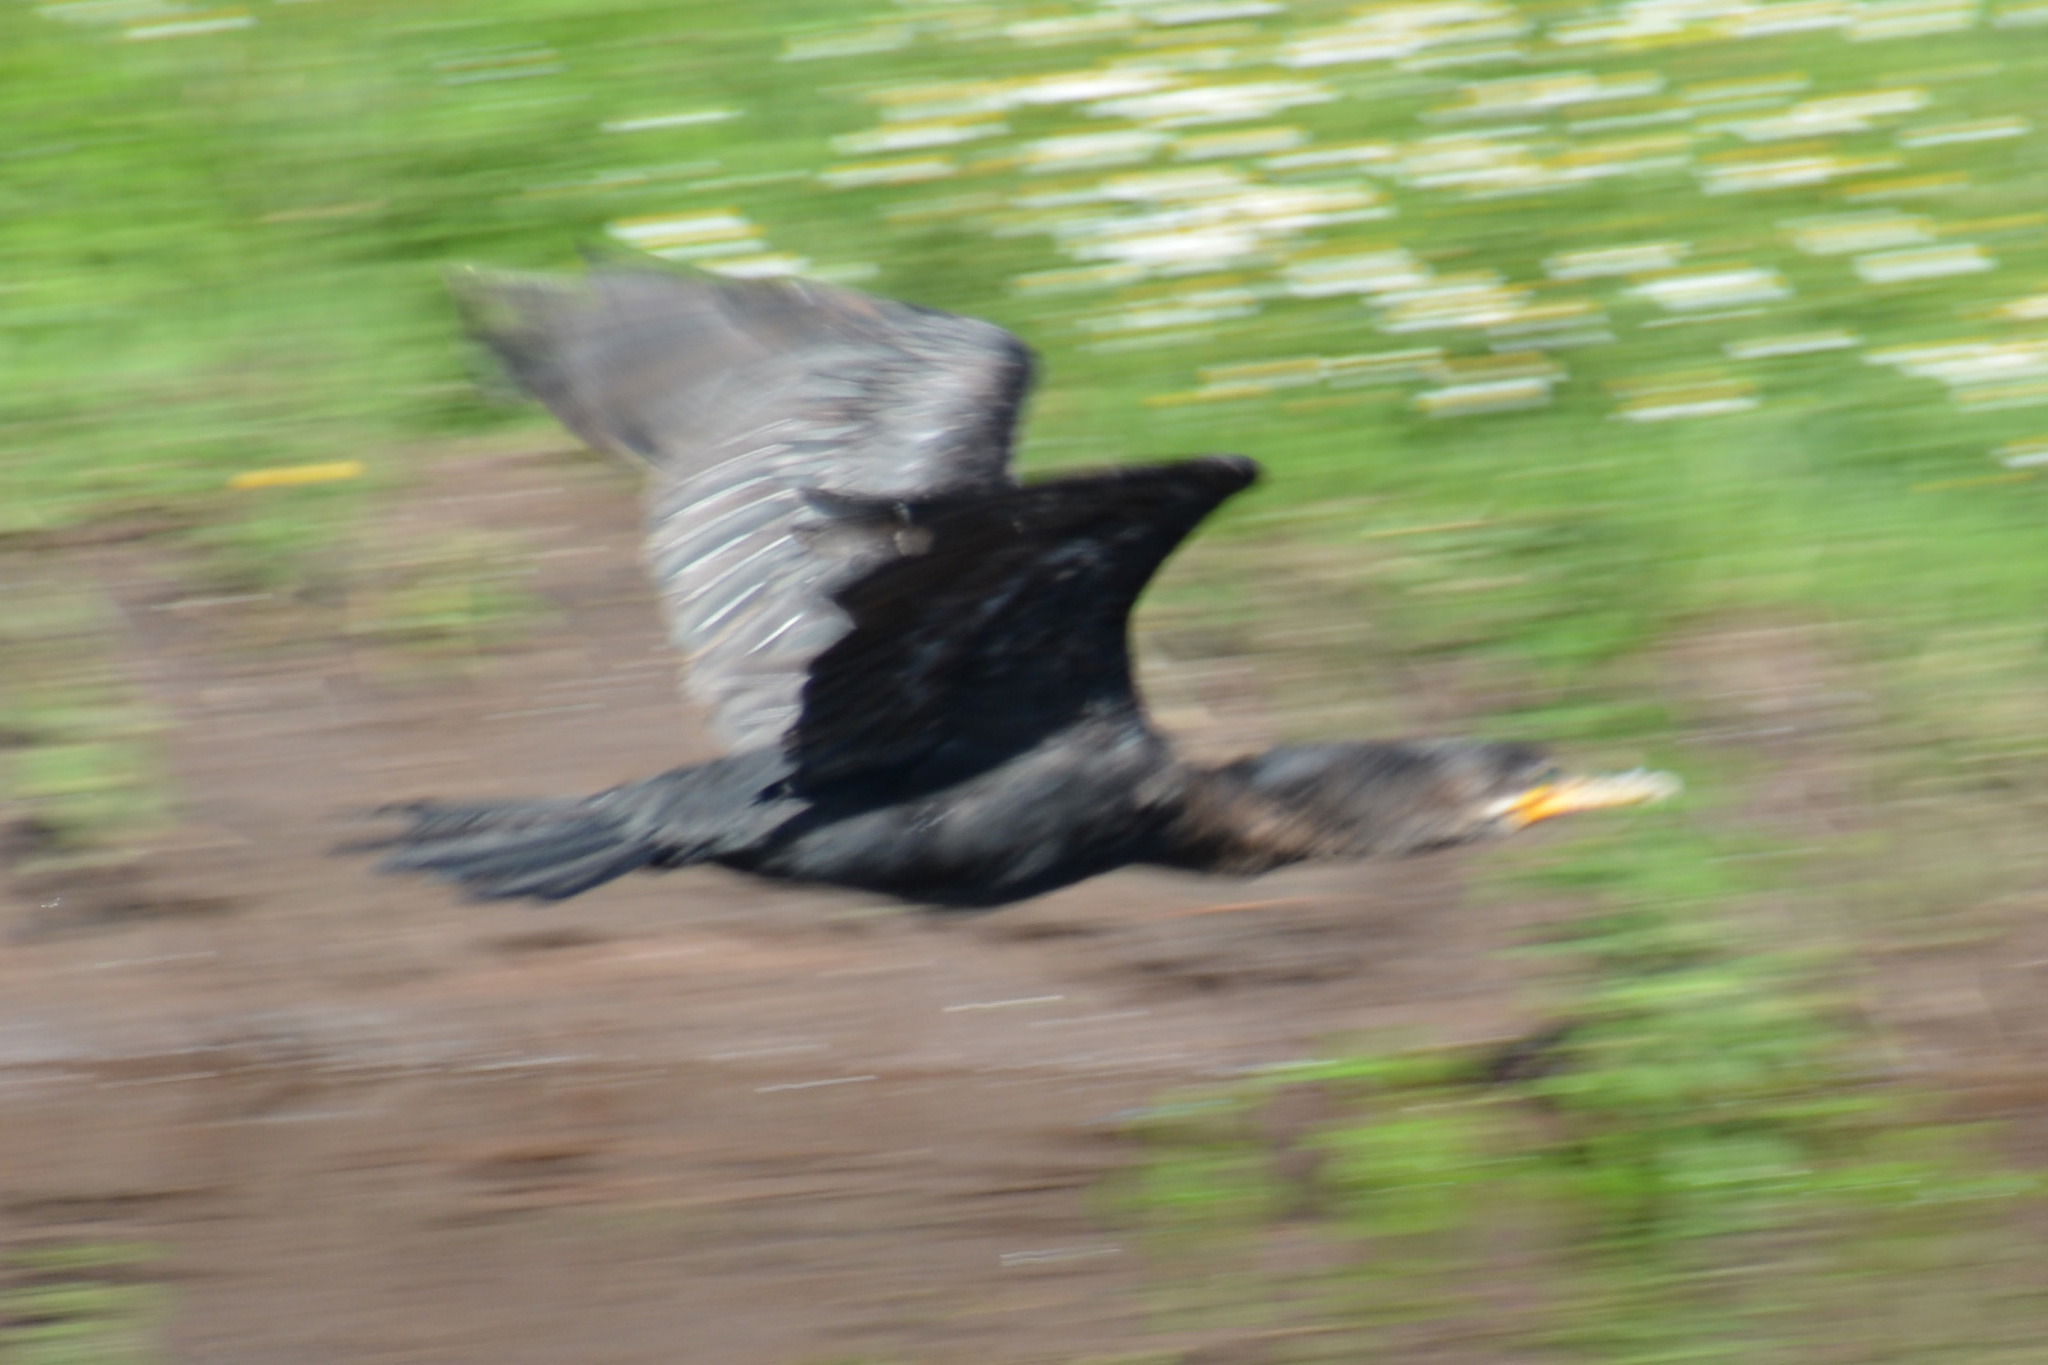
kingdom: Animalia
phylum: Chordata
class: Aves
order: Suliformes
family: Phalacrocoracidae
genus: Phalacrocorax
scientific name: Phalacrocorax brasilianus
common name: Neotropic cormorant
